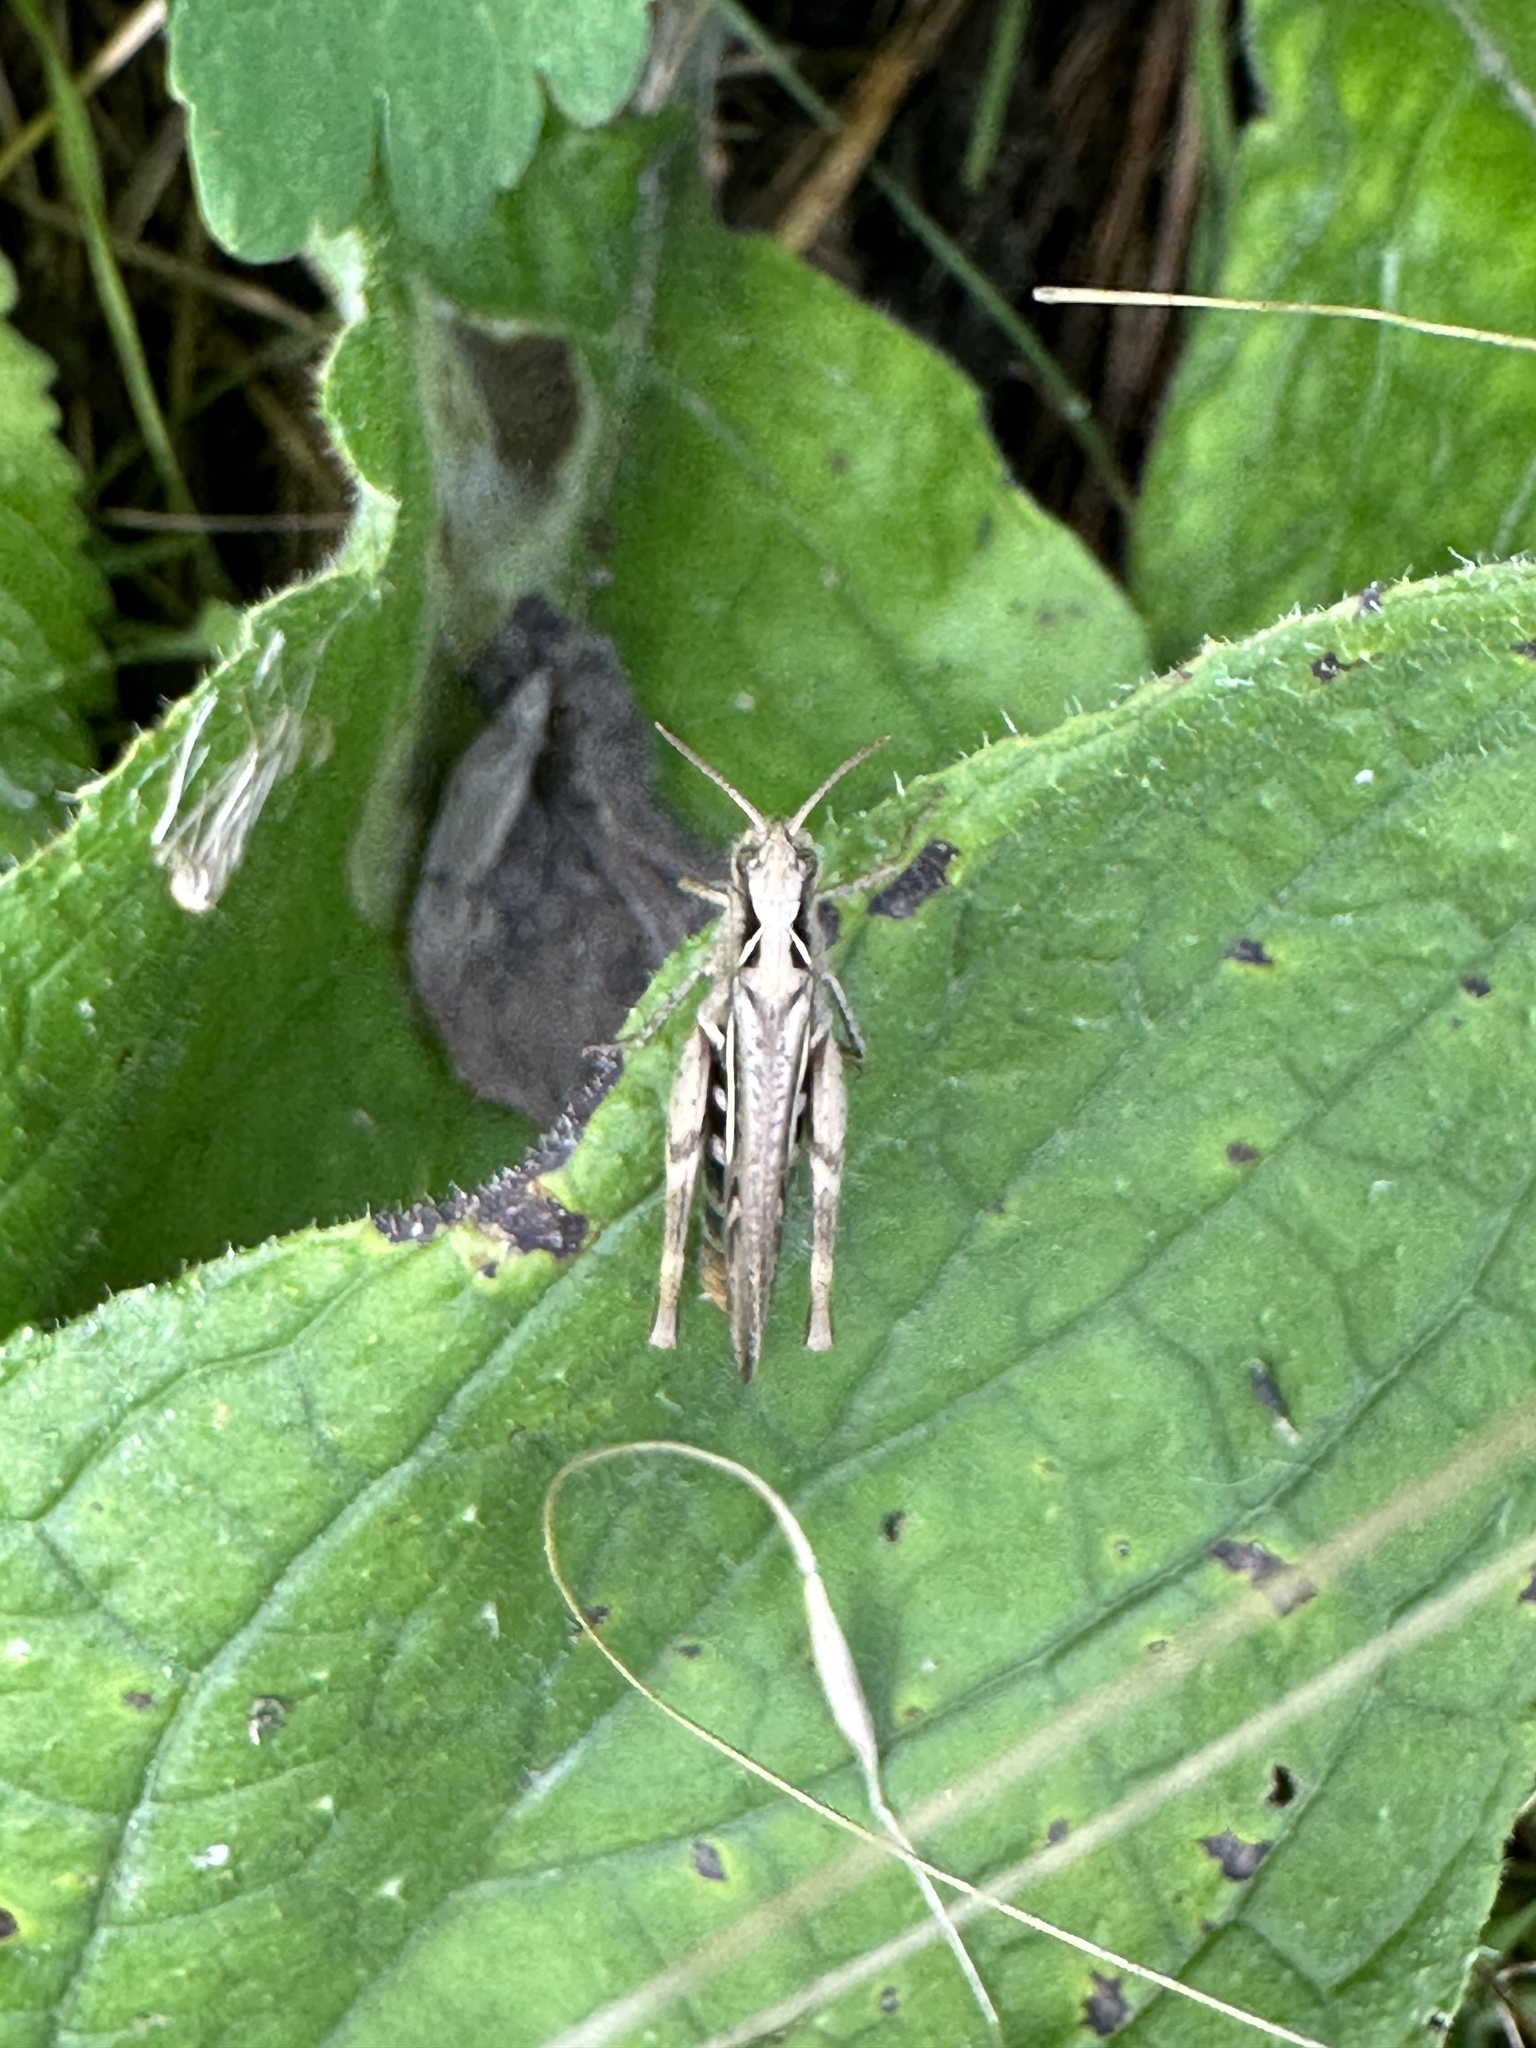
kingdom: Animalia
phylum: Arthropoda
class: Insecta
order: Orthoptera
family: Acrididae
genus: Chorthippus
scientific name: Chorthippus brunneus
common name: Field grasshopper
